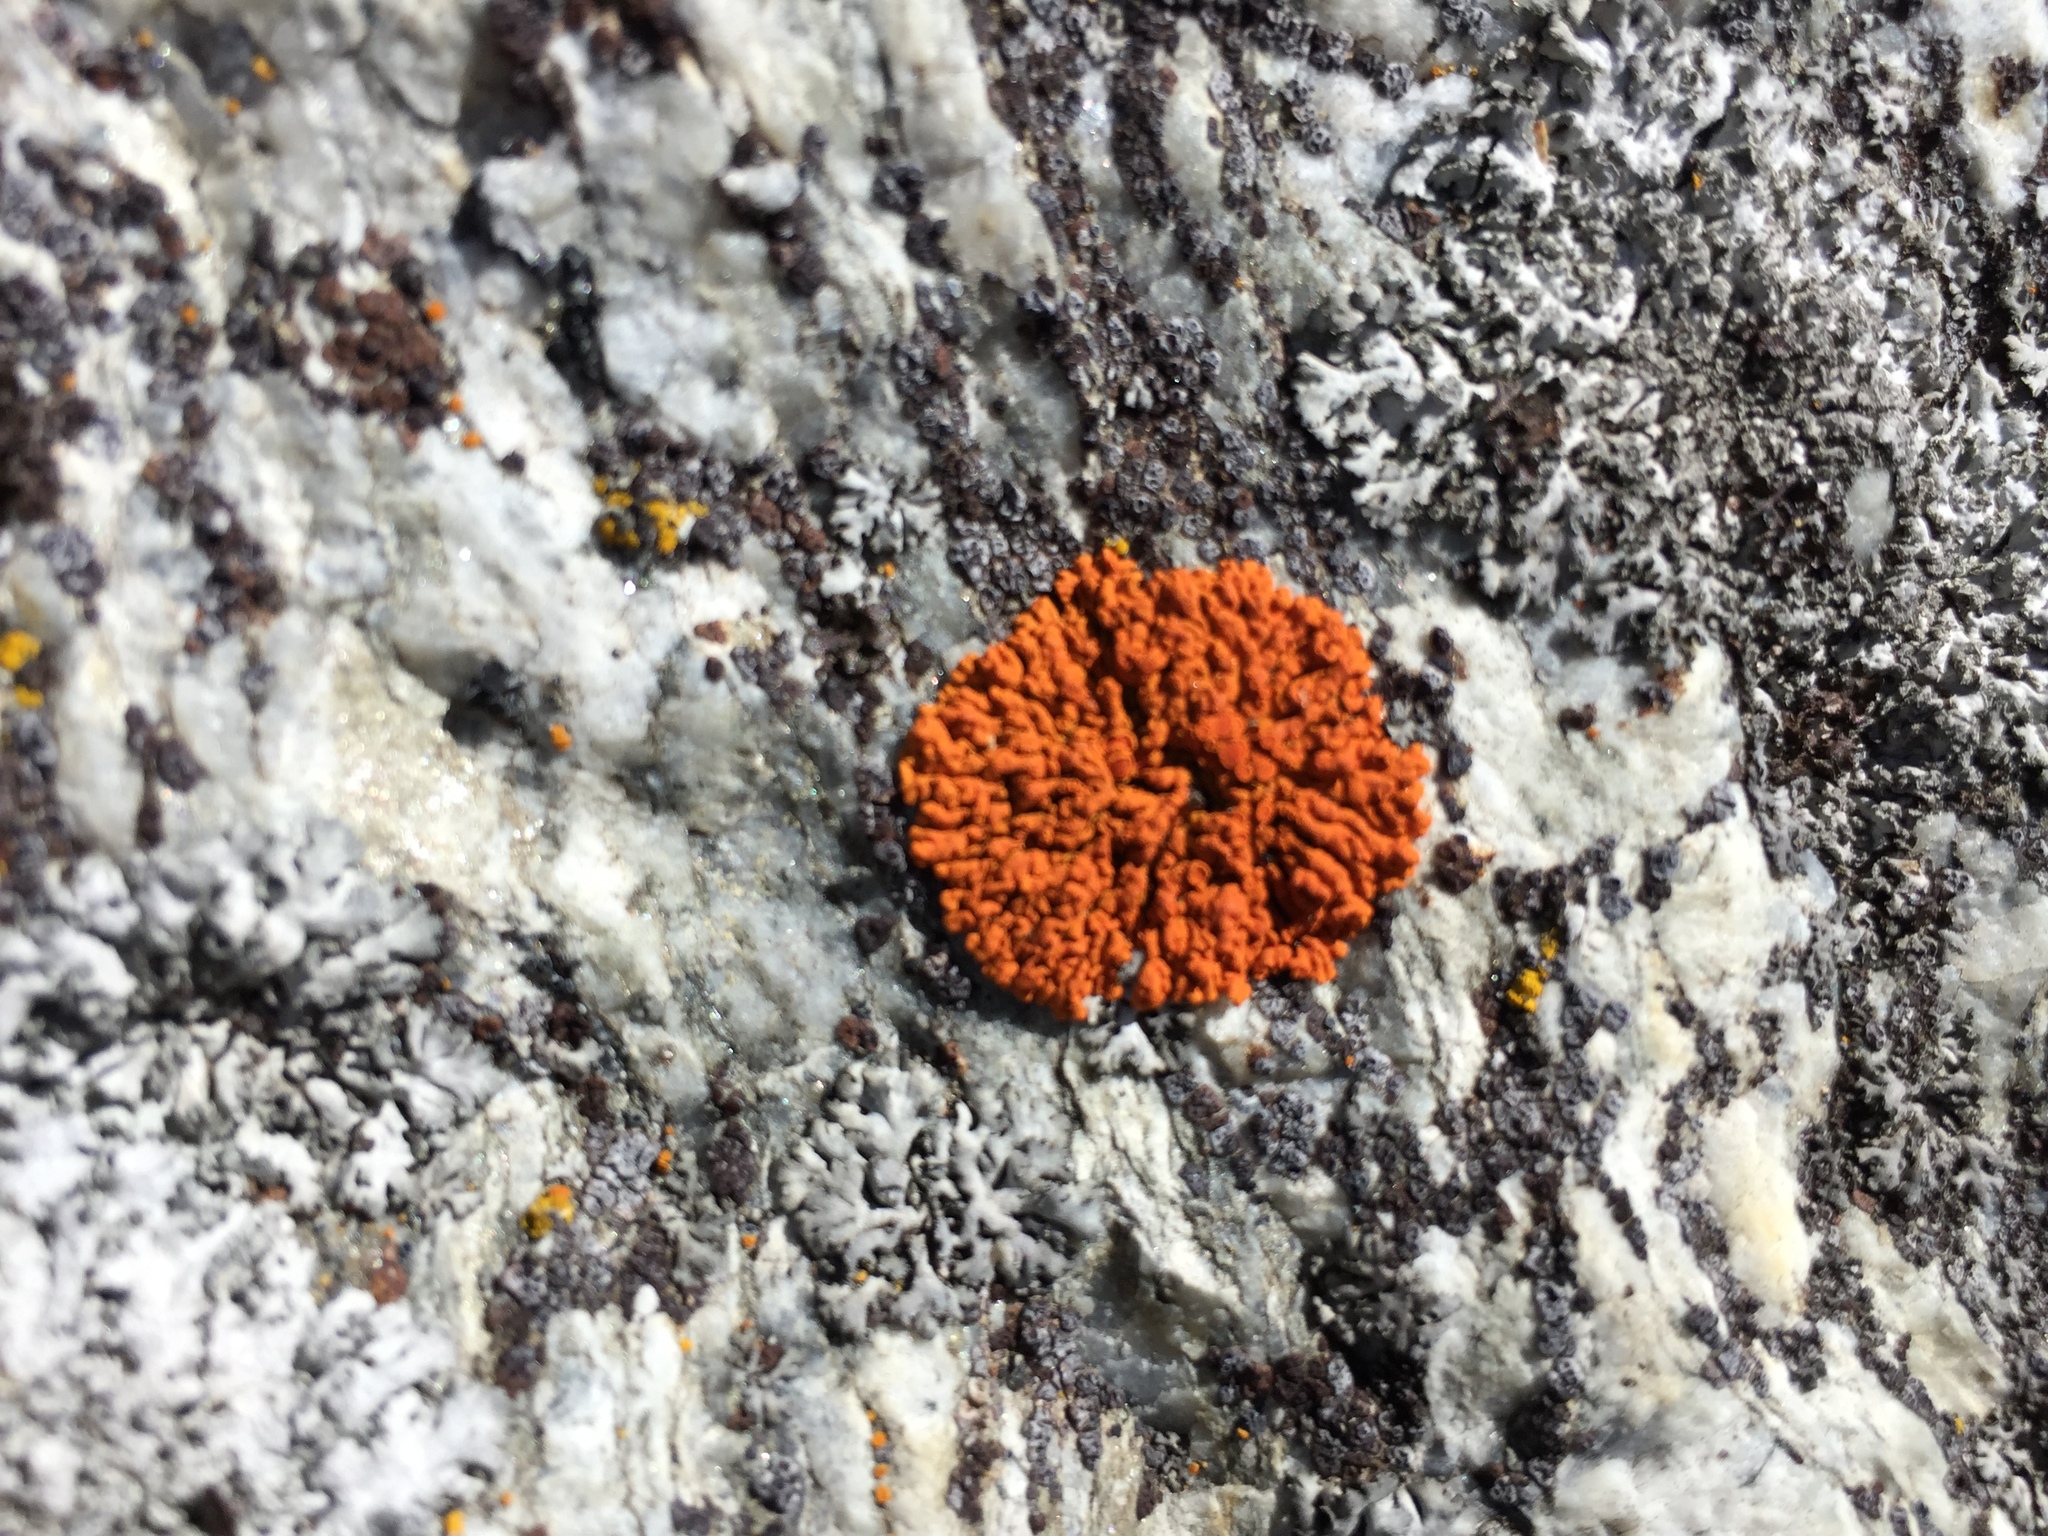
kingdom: Fungi
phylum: Ascomycota
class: Lecanoromycetes
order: Teloschistales
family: Teloschistaceae
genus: Xanthoria
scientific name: Xanthoria elegans
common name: Elegant sunburst lichen
